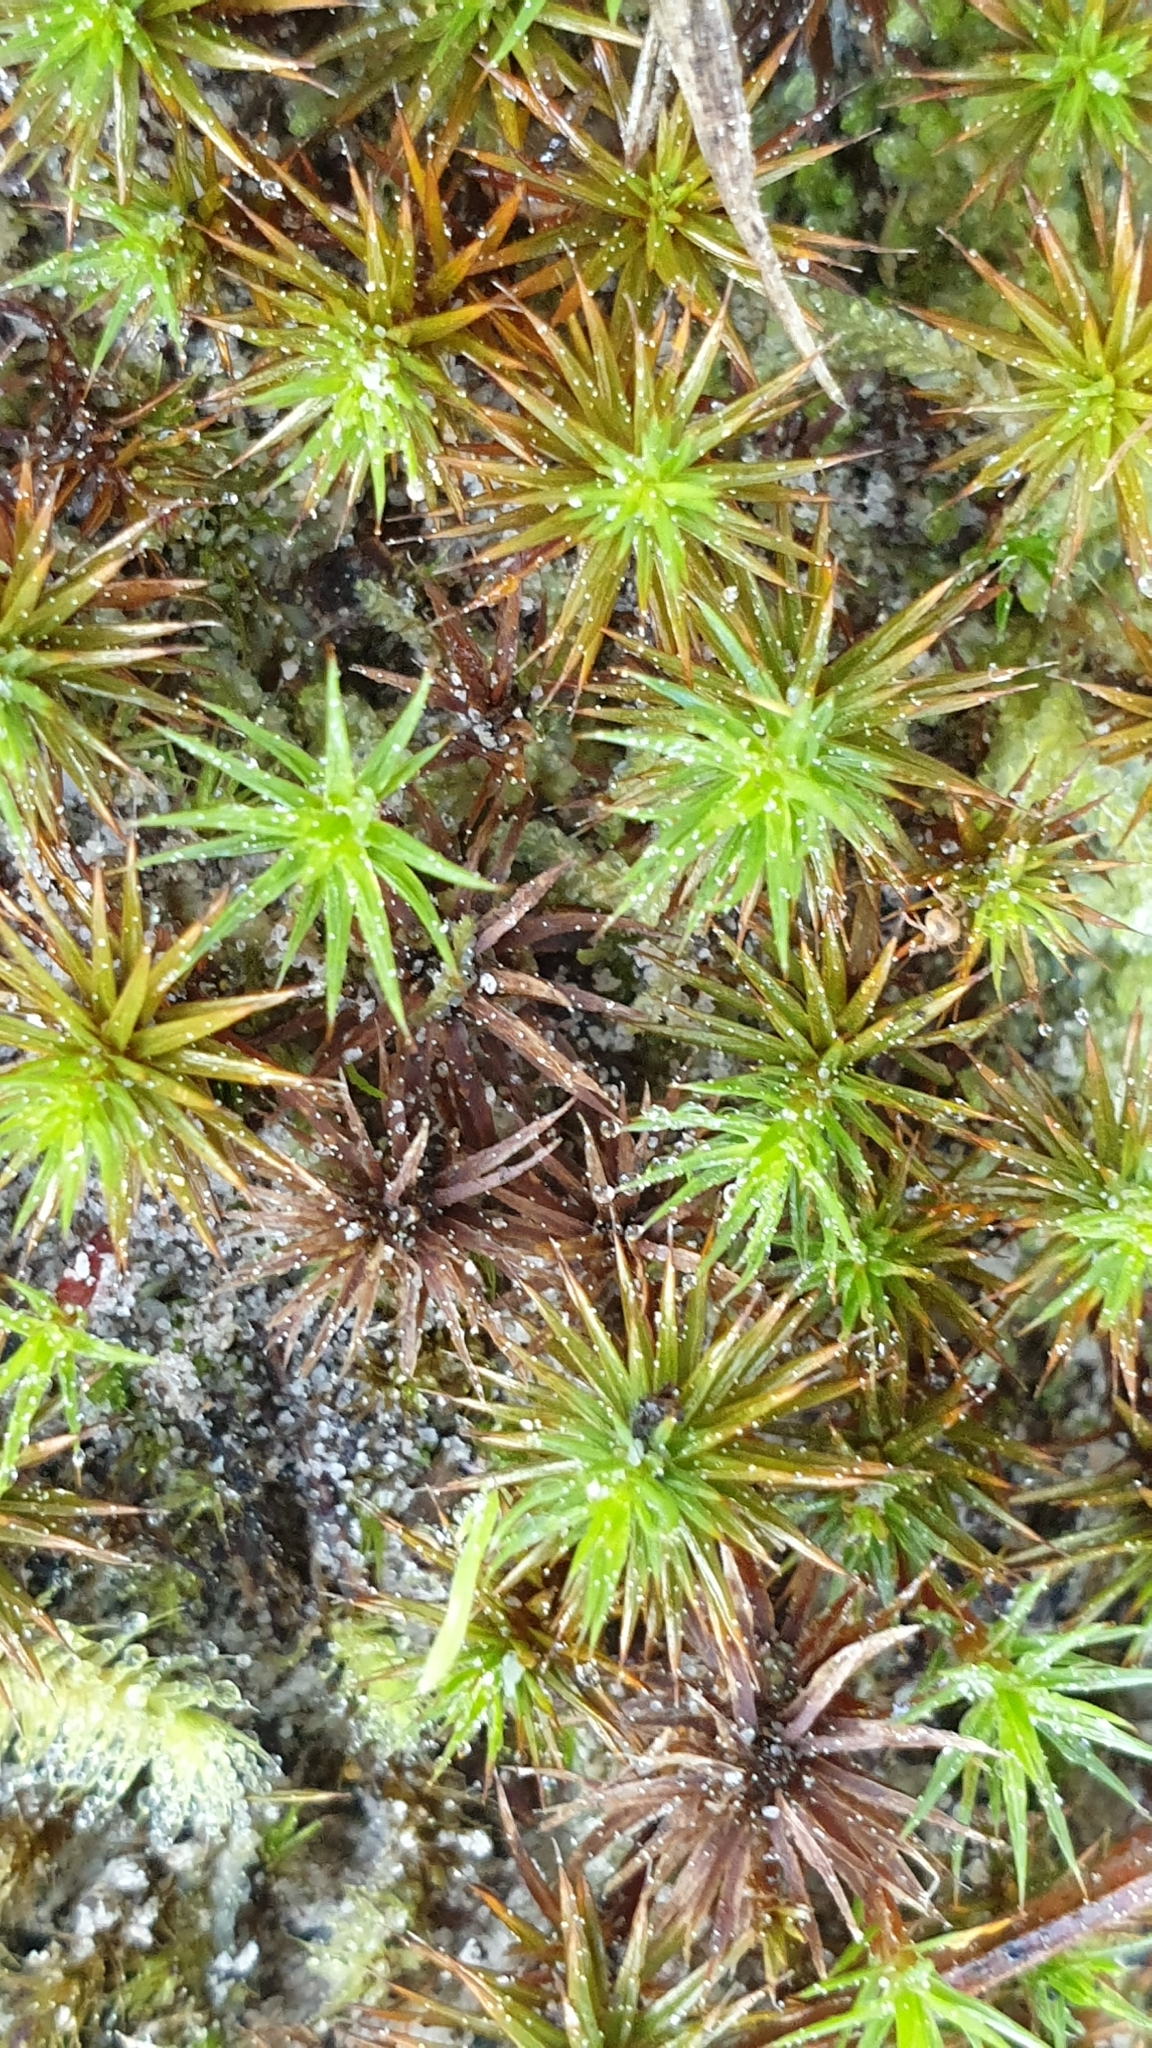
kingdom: Plantae
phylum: Bryophyta
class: Polytrichopsida
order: Polytrichales
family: Polytrichaceae
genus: Polytrichum
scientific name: Polytrichum juniperinum
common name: Juniper haircap moss
